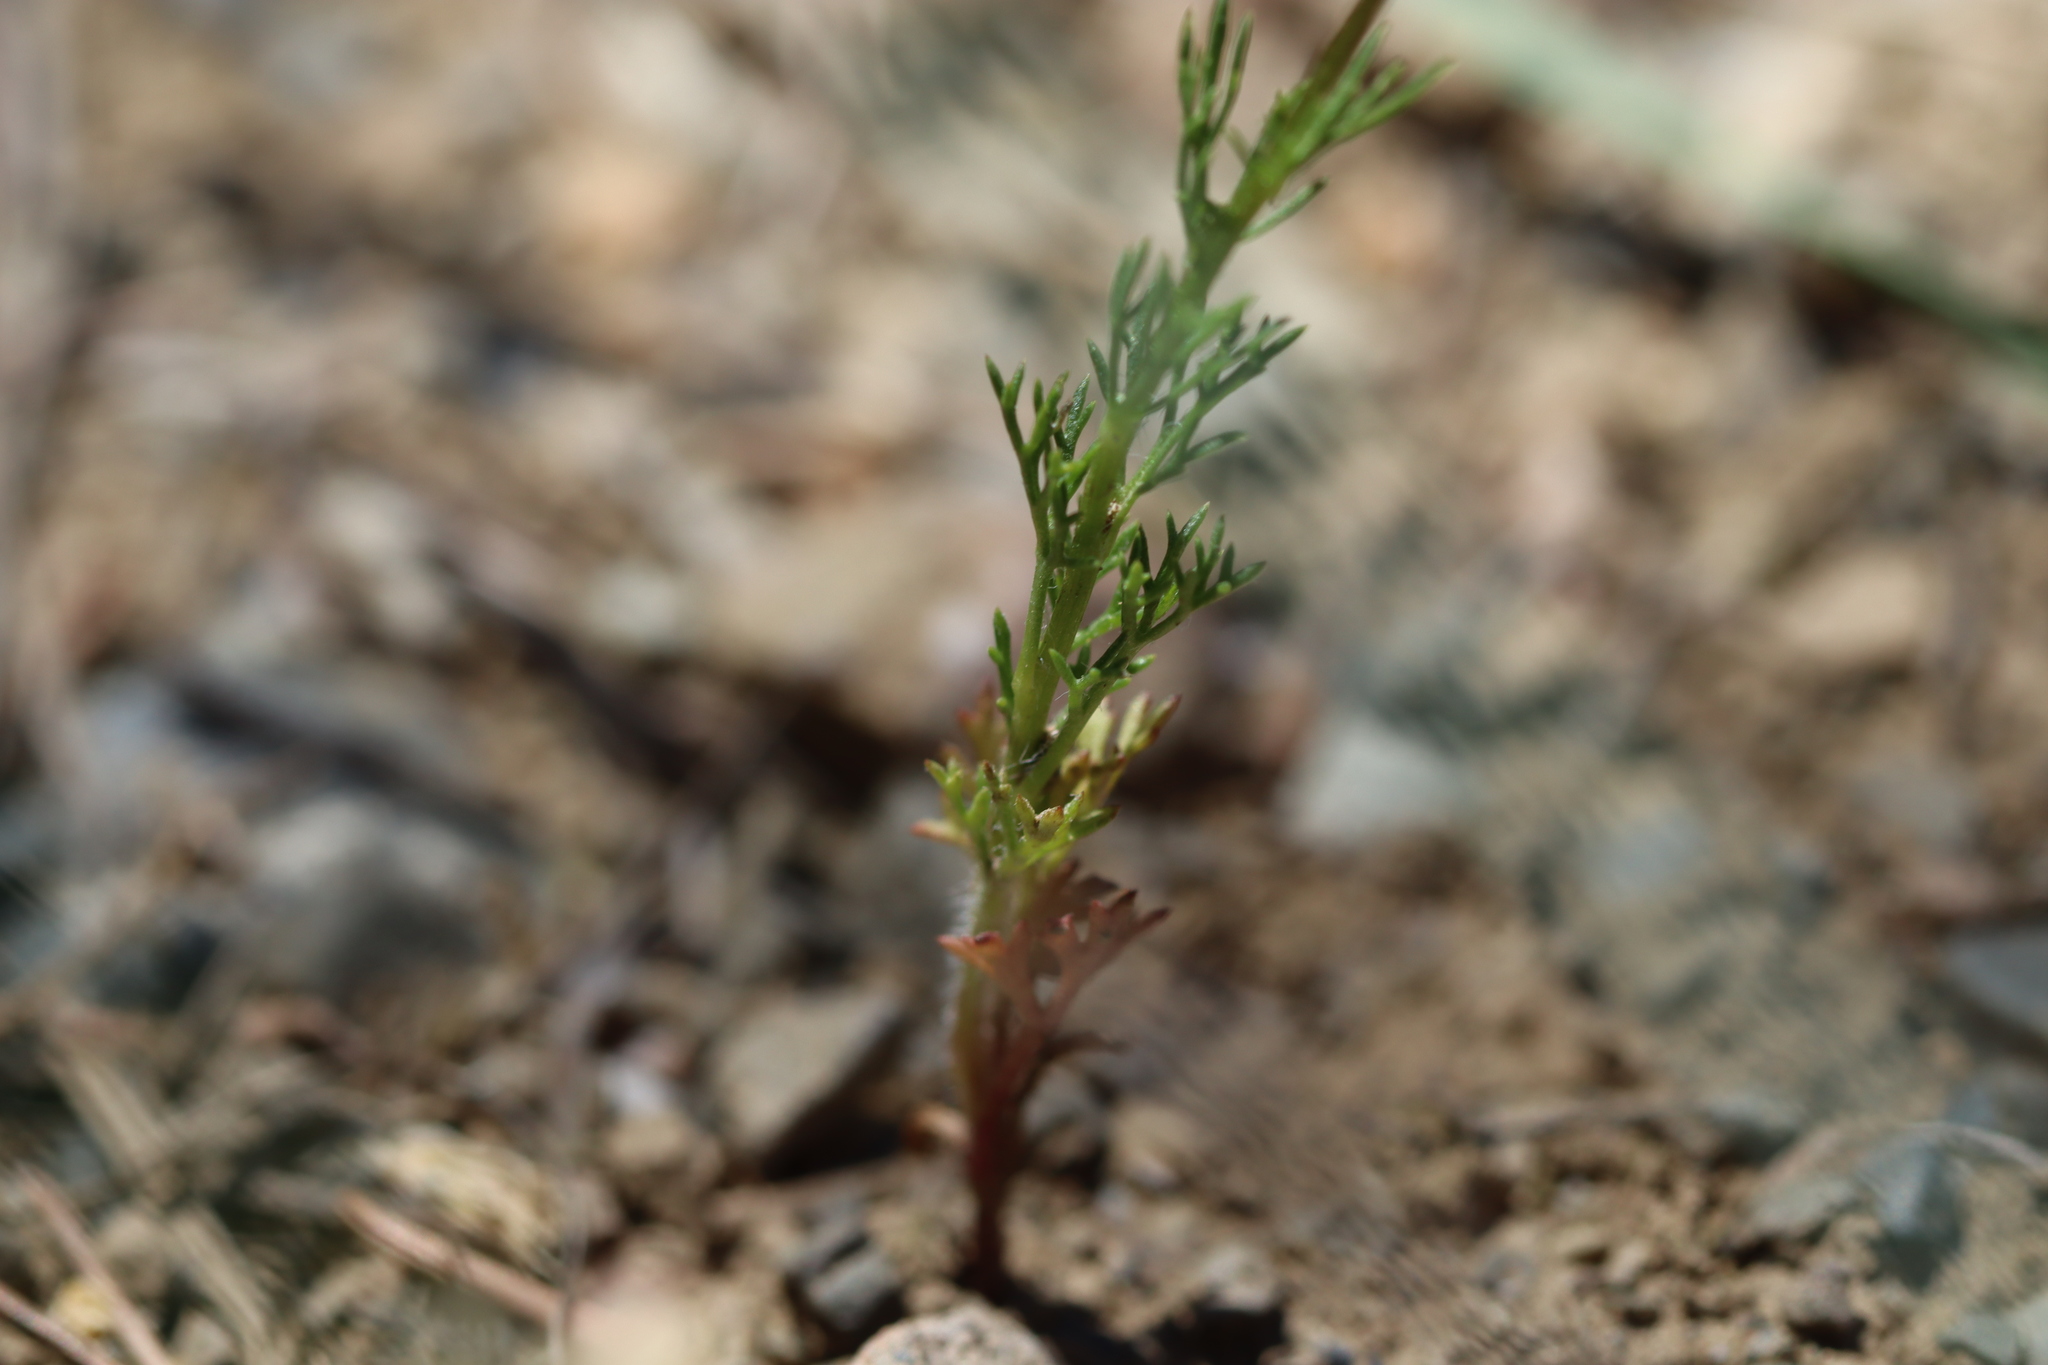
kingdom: Plantae
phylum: Tracheophyta
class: Magnoliopsida
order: Ranunculales
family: Ranunculaceae
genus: Adonis
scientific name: Adonis flammea
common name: Large pheasant's-eye
